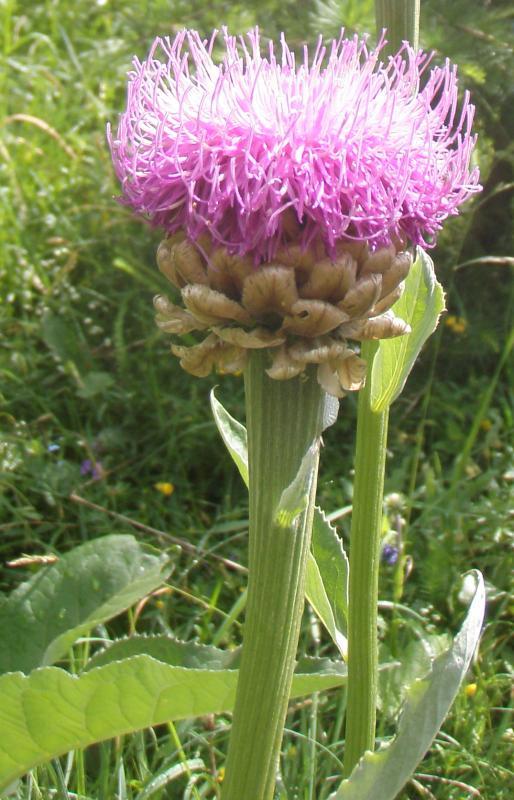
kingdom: Plantae
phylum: Tracheophyta
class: Magnoliopsida
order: Asterales
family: Asteraceae
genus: Leuzea
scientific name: Leuzea rhapontica
